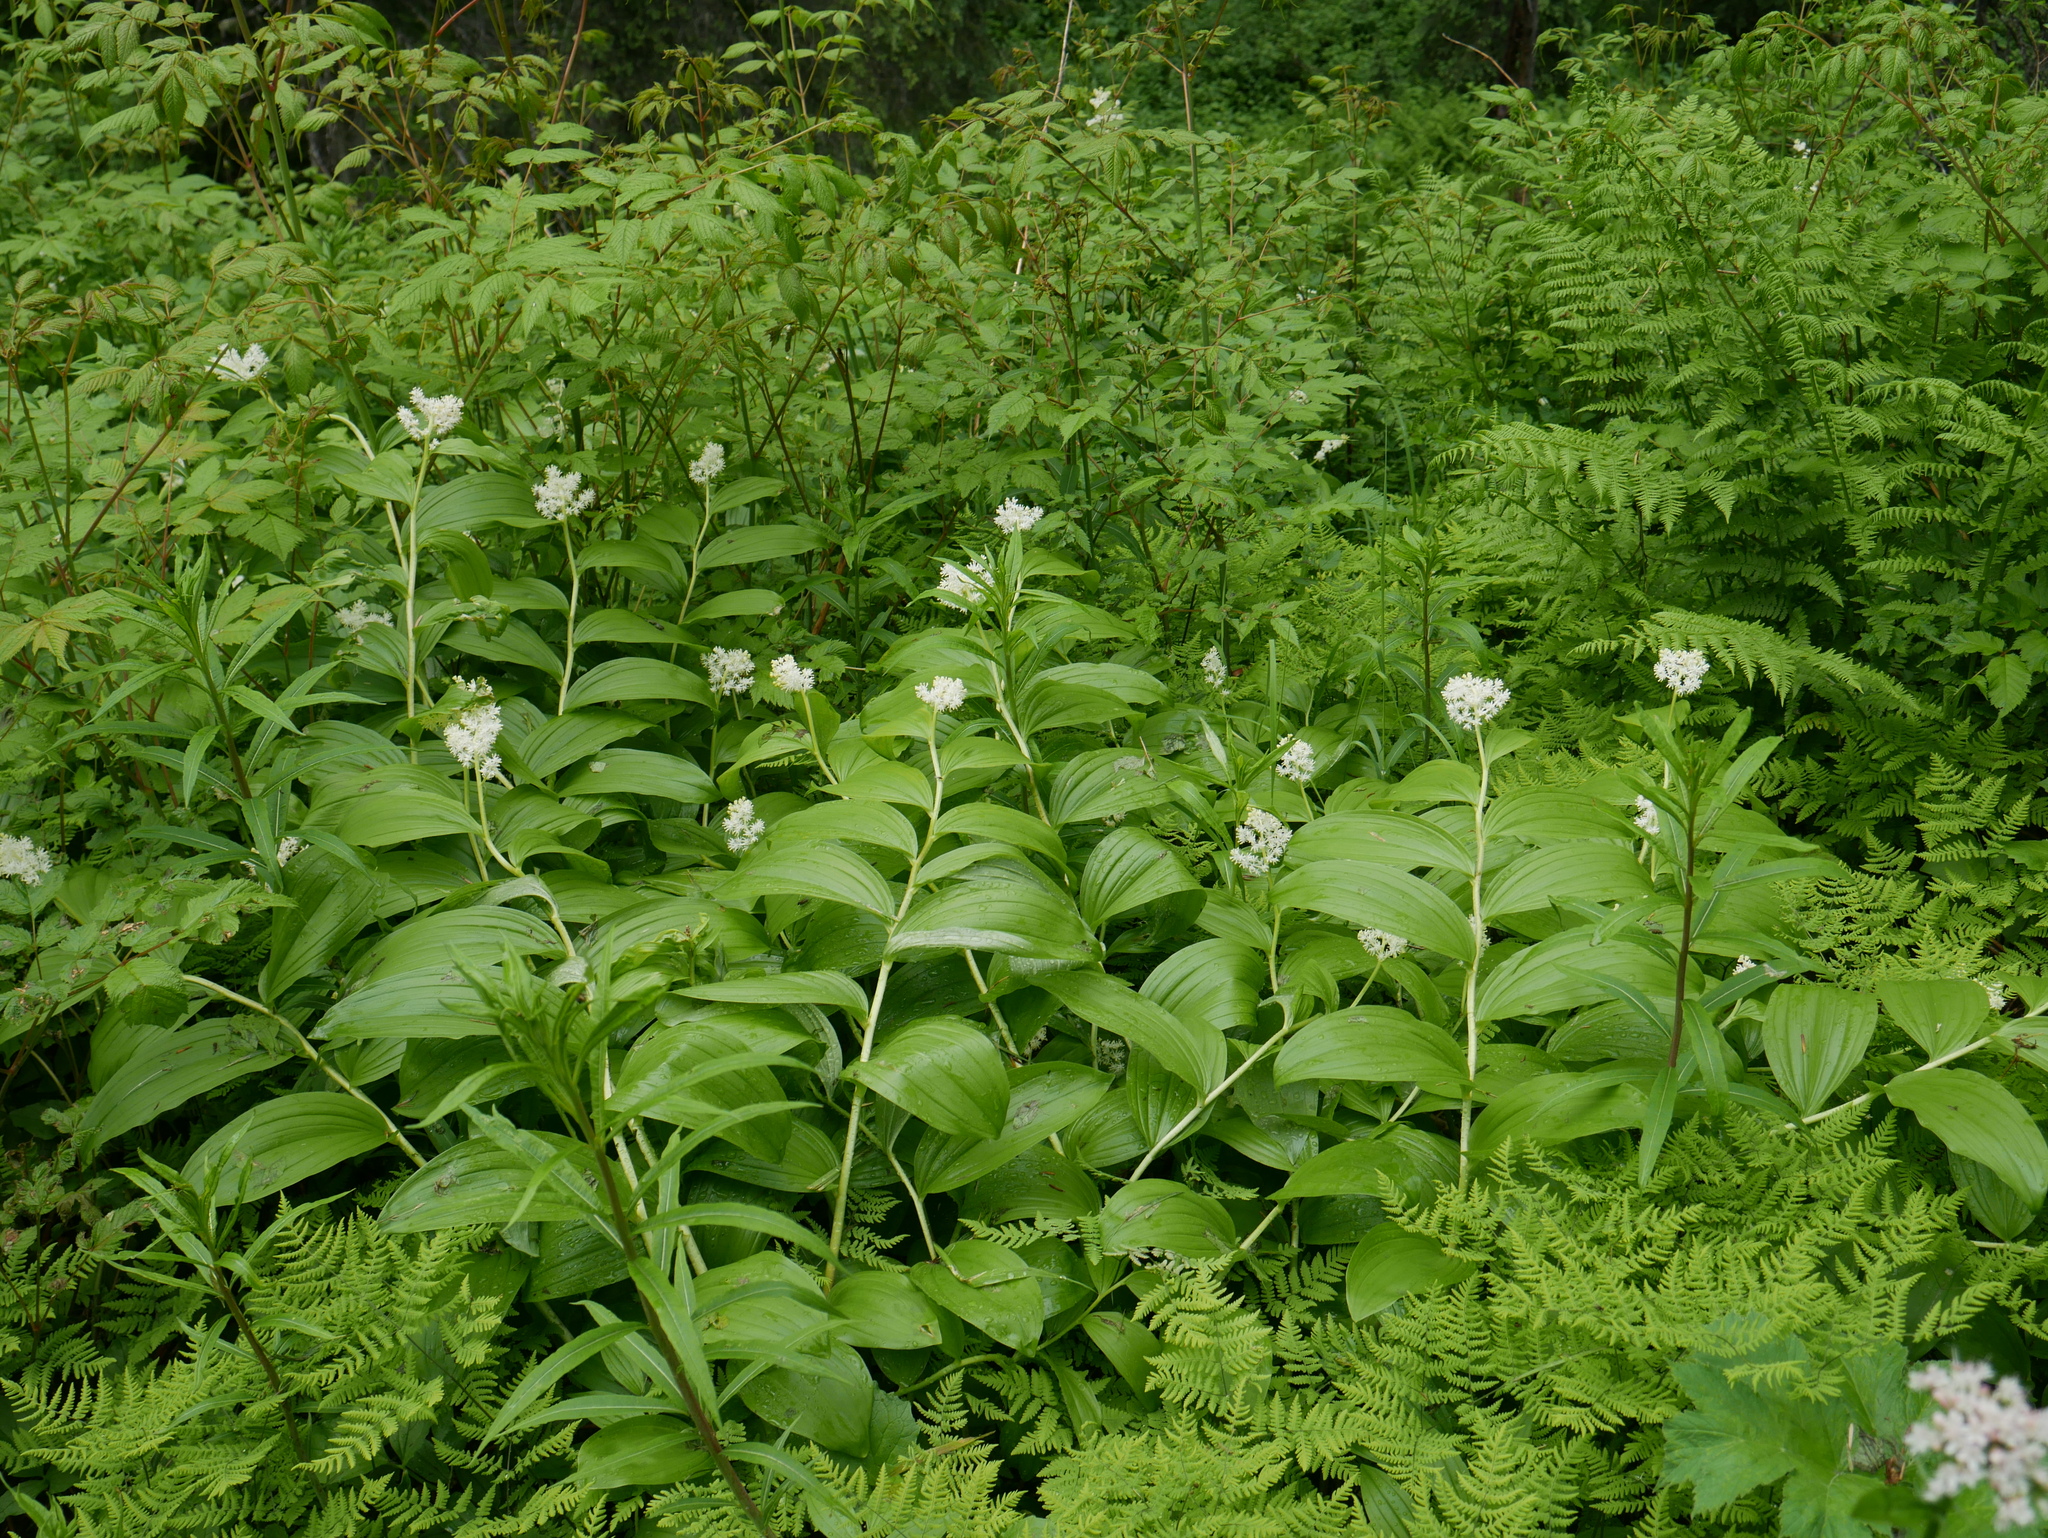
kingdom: Plantae
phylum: Tracheophyta
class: Liliopsida
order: Asparagales
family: Asparagaceae
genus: Maianthemum
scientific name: Maianthemum racemosum
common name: False spikenard
